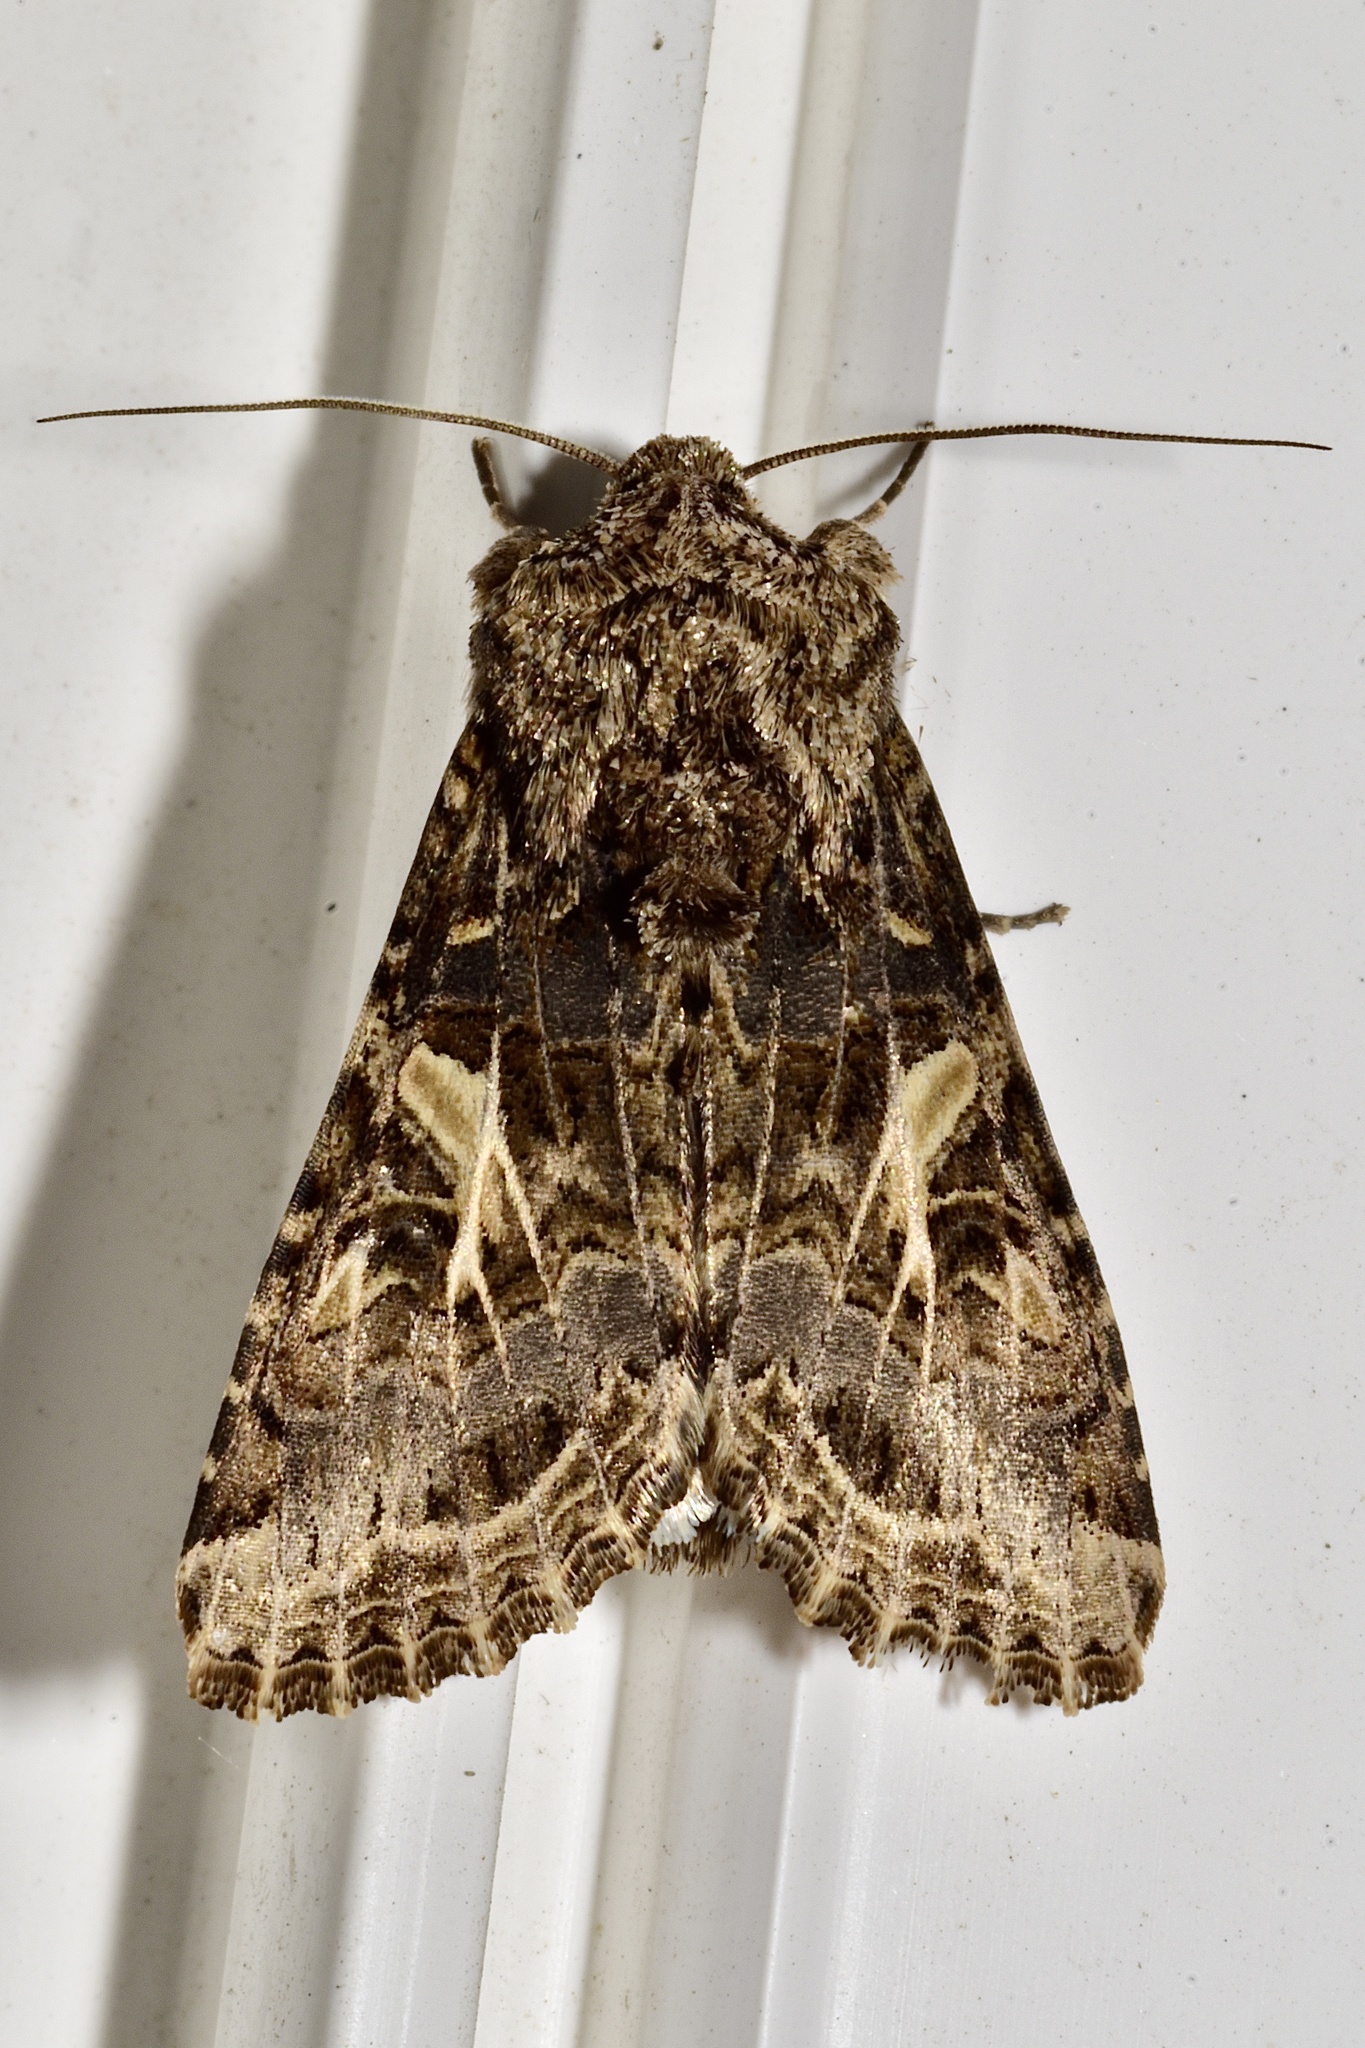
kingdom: Animalia
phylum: Arthropoda
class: Insecta
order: Lepidoptera
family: Noctuidae
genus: Spodoptera
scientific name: Spodoptera praefica
